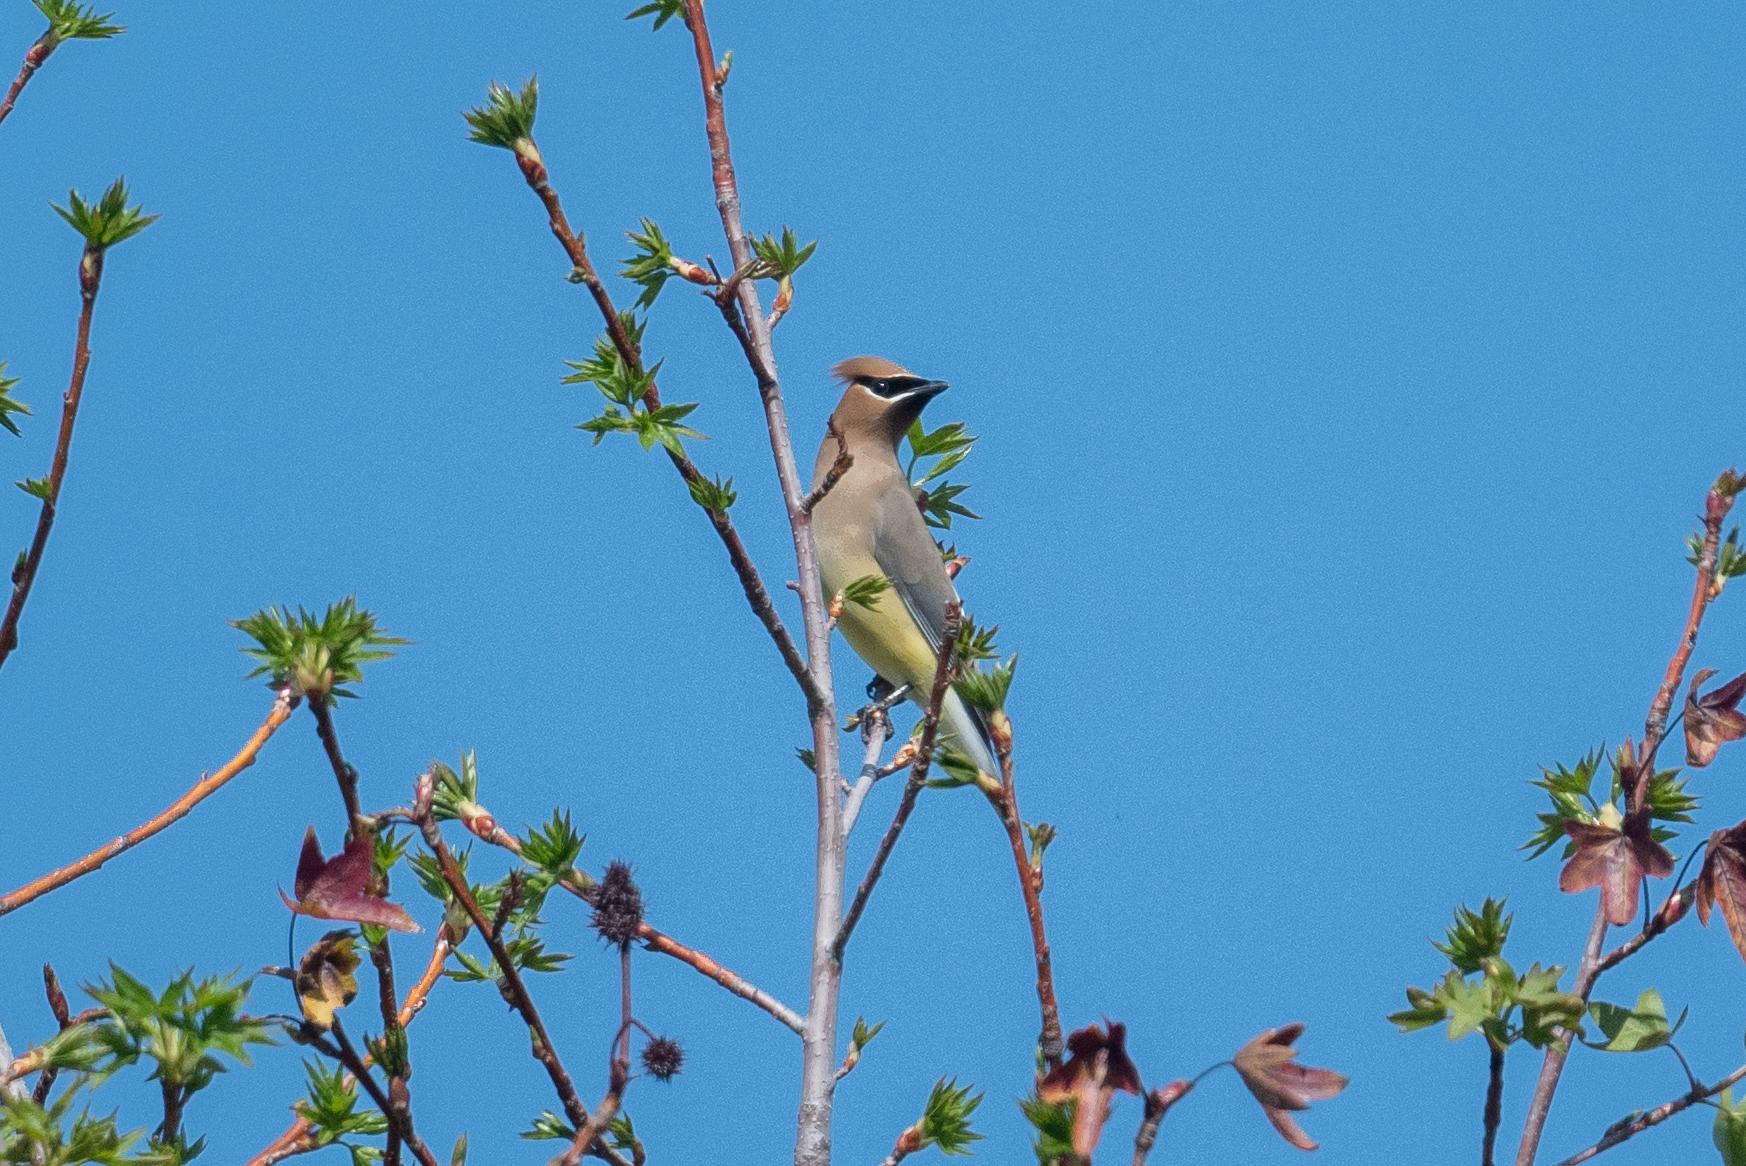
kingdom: Animalia
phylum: Chordata
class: Aves
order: Passeriformes
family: Bombycillidae
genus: Bombycilla
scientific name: Bombycilla cedrorum
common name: Cedar waxwing
